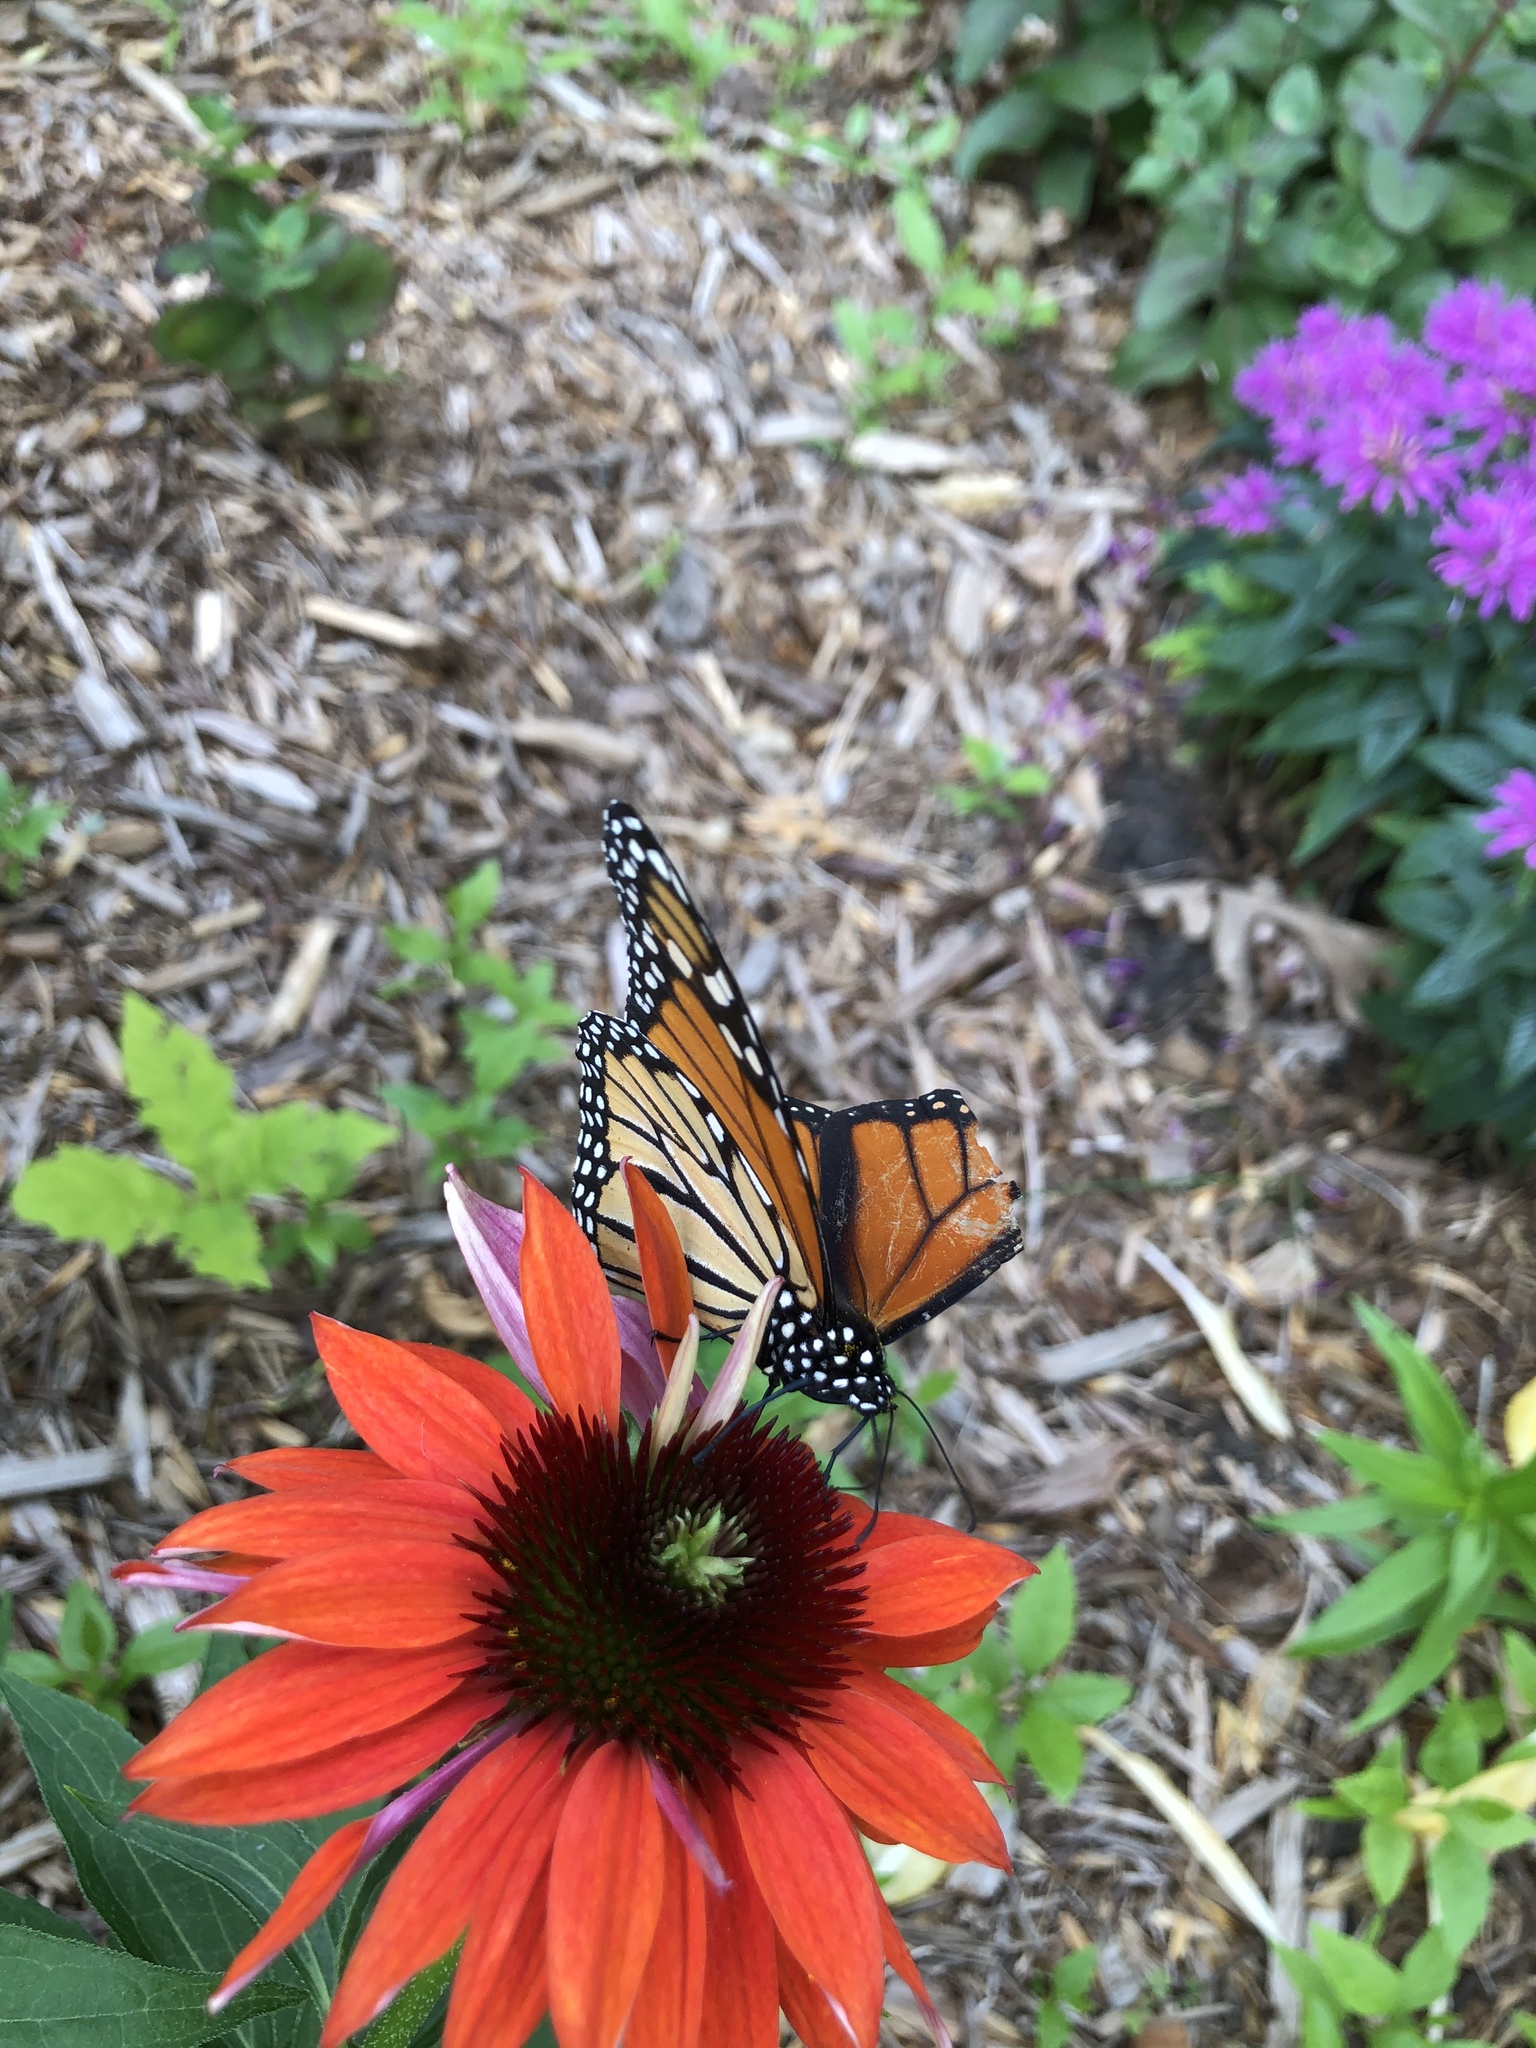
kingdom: Animalia
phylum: Arthropoda
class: Insecta
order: Lepidoptera
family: Nymphalidae
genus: Danaus
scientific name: Danaus plexippus
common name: Monarch
